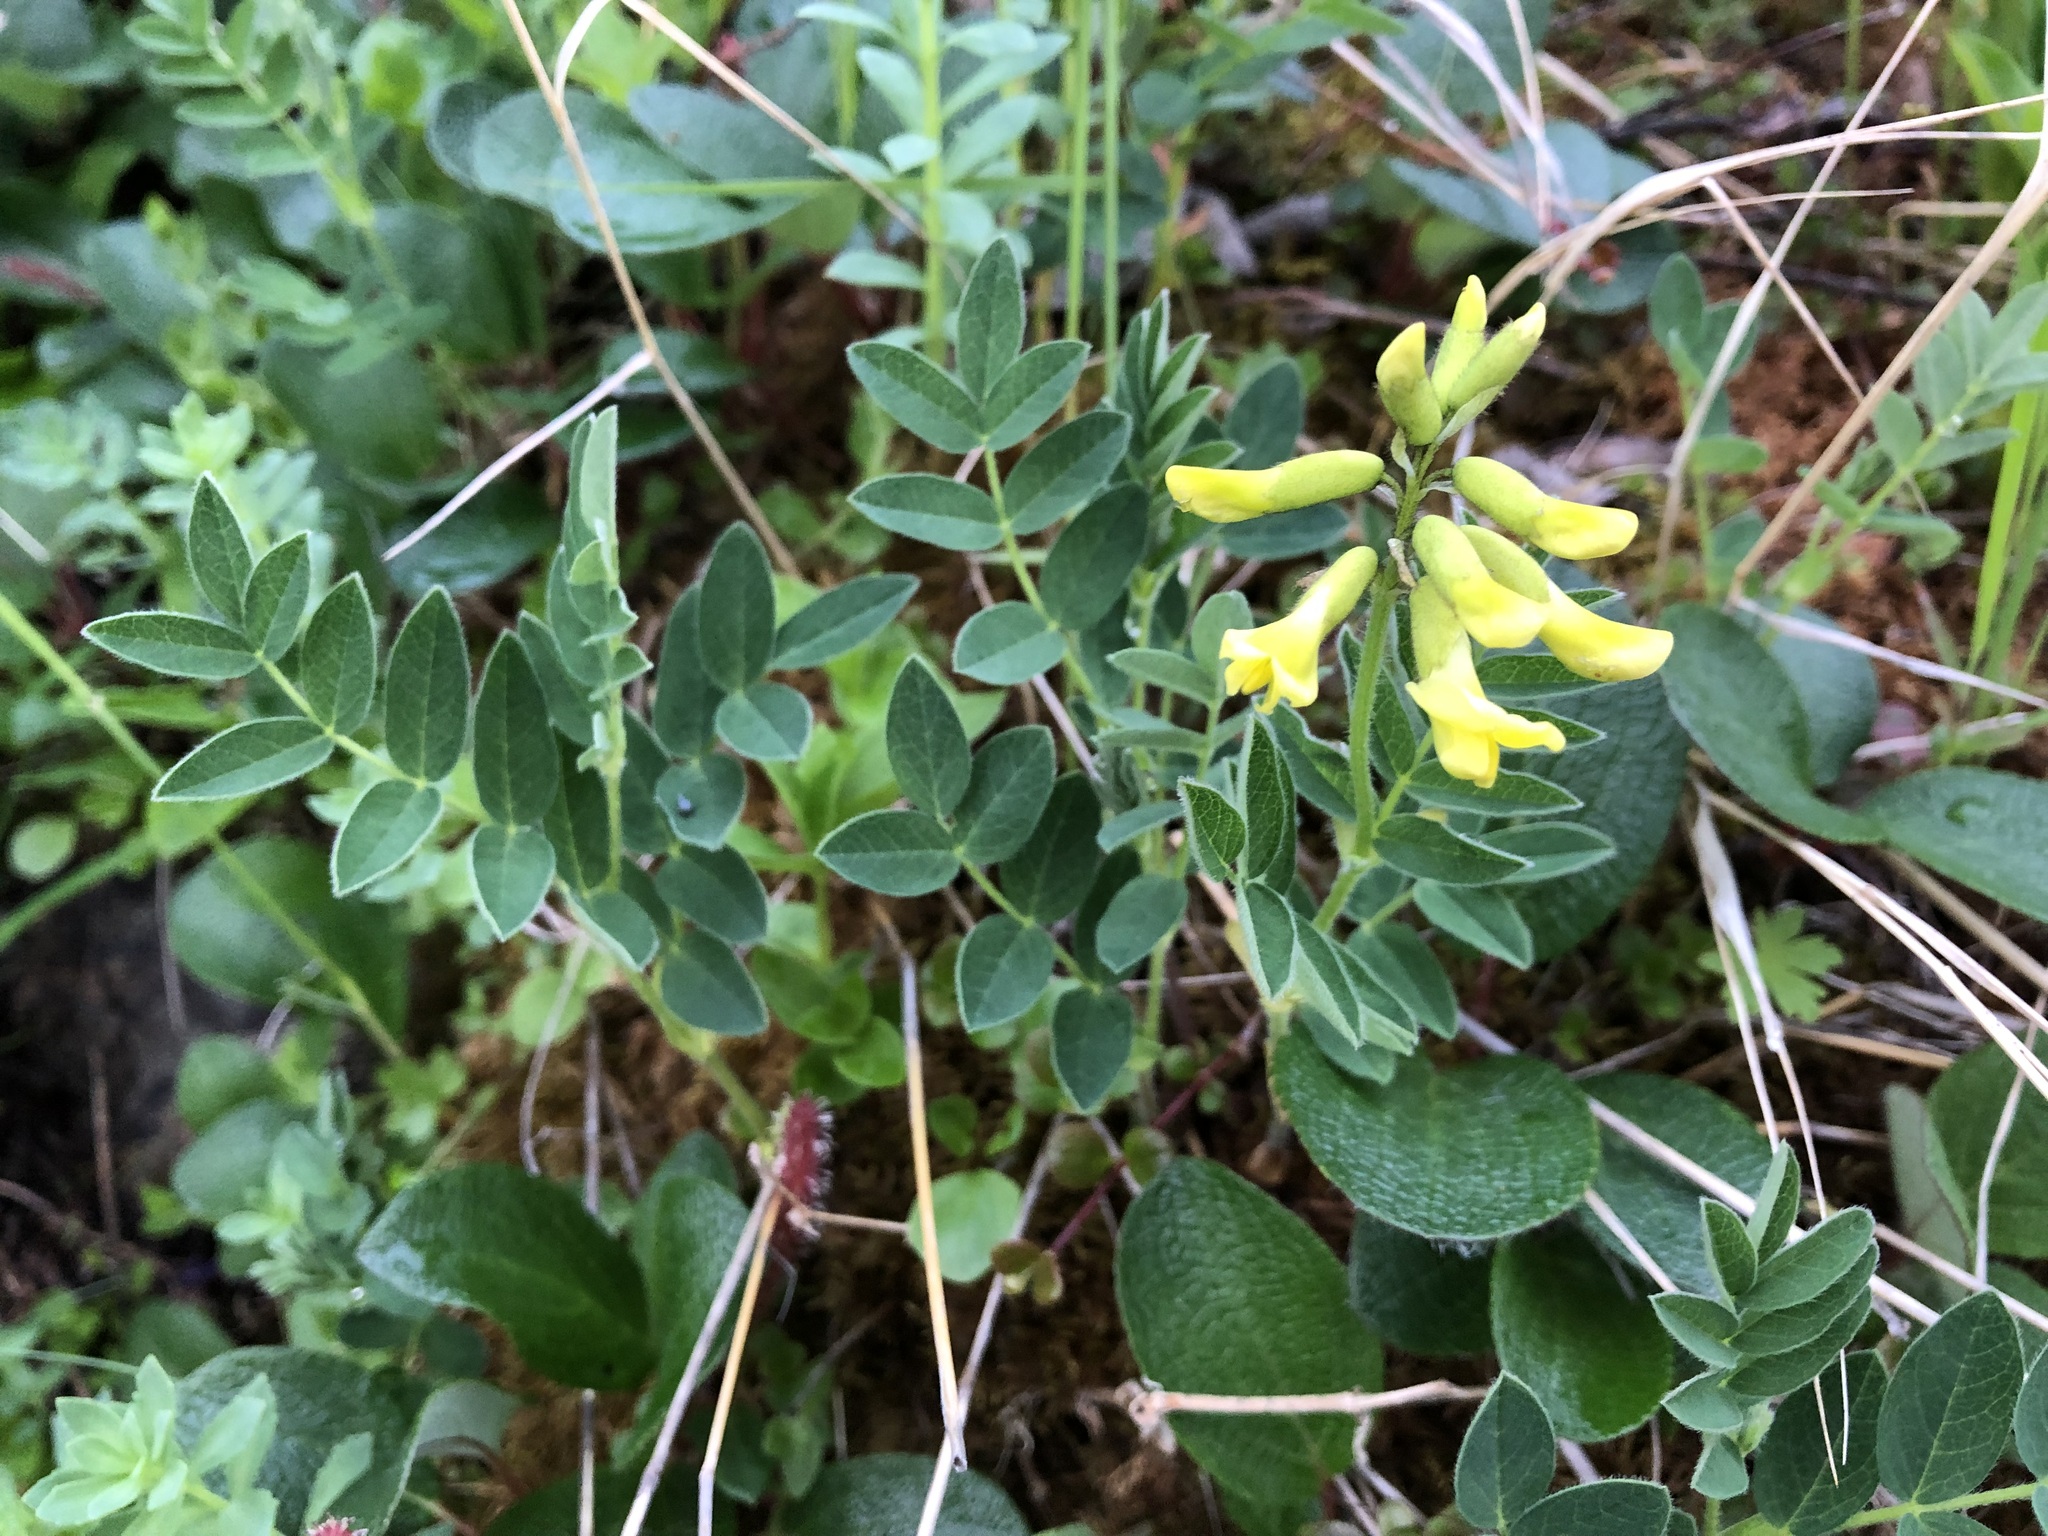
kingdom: Plantae
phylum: Tracheophyta
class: Magnoliopsida
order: Fabales
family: Fabaceae
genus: Astragalus
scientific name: Astragalus umbellatus
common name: Tundra milk-vetch
